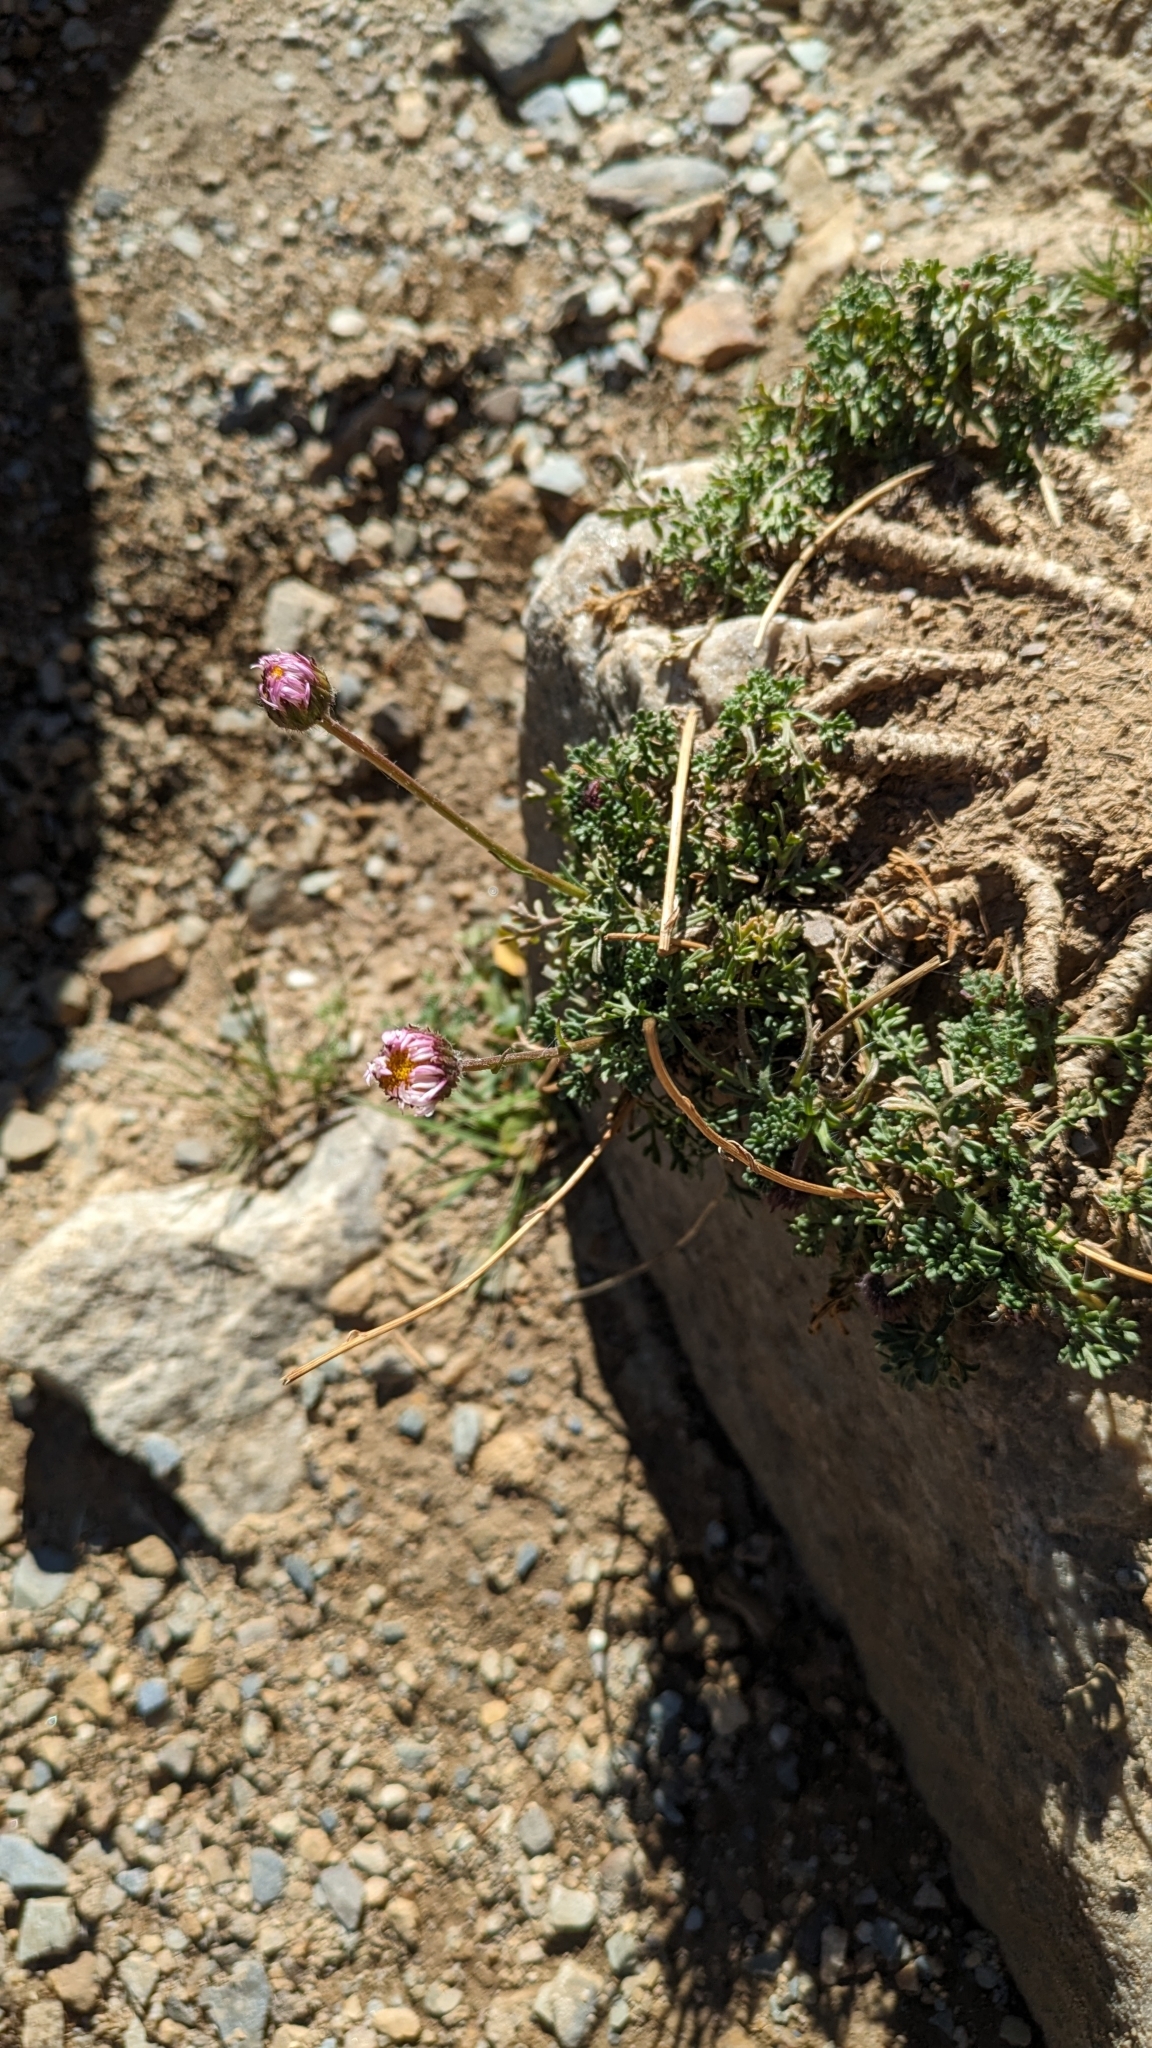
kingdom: Plantae
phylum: Tracheophyta
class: Magnoliopsida
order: Asterales
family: Asteraceae
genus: Erigeron
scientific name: Erigeron compositus
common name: Dwarf mountain fleabane
